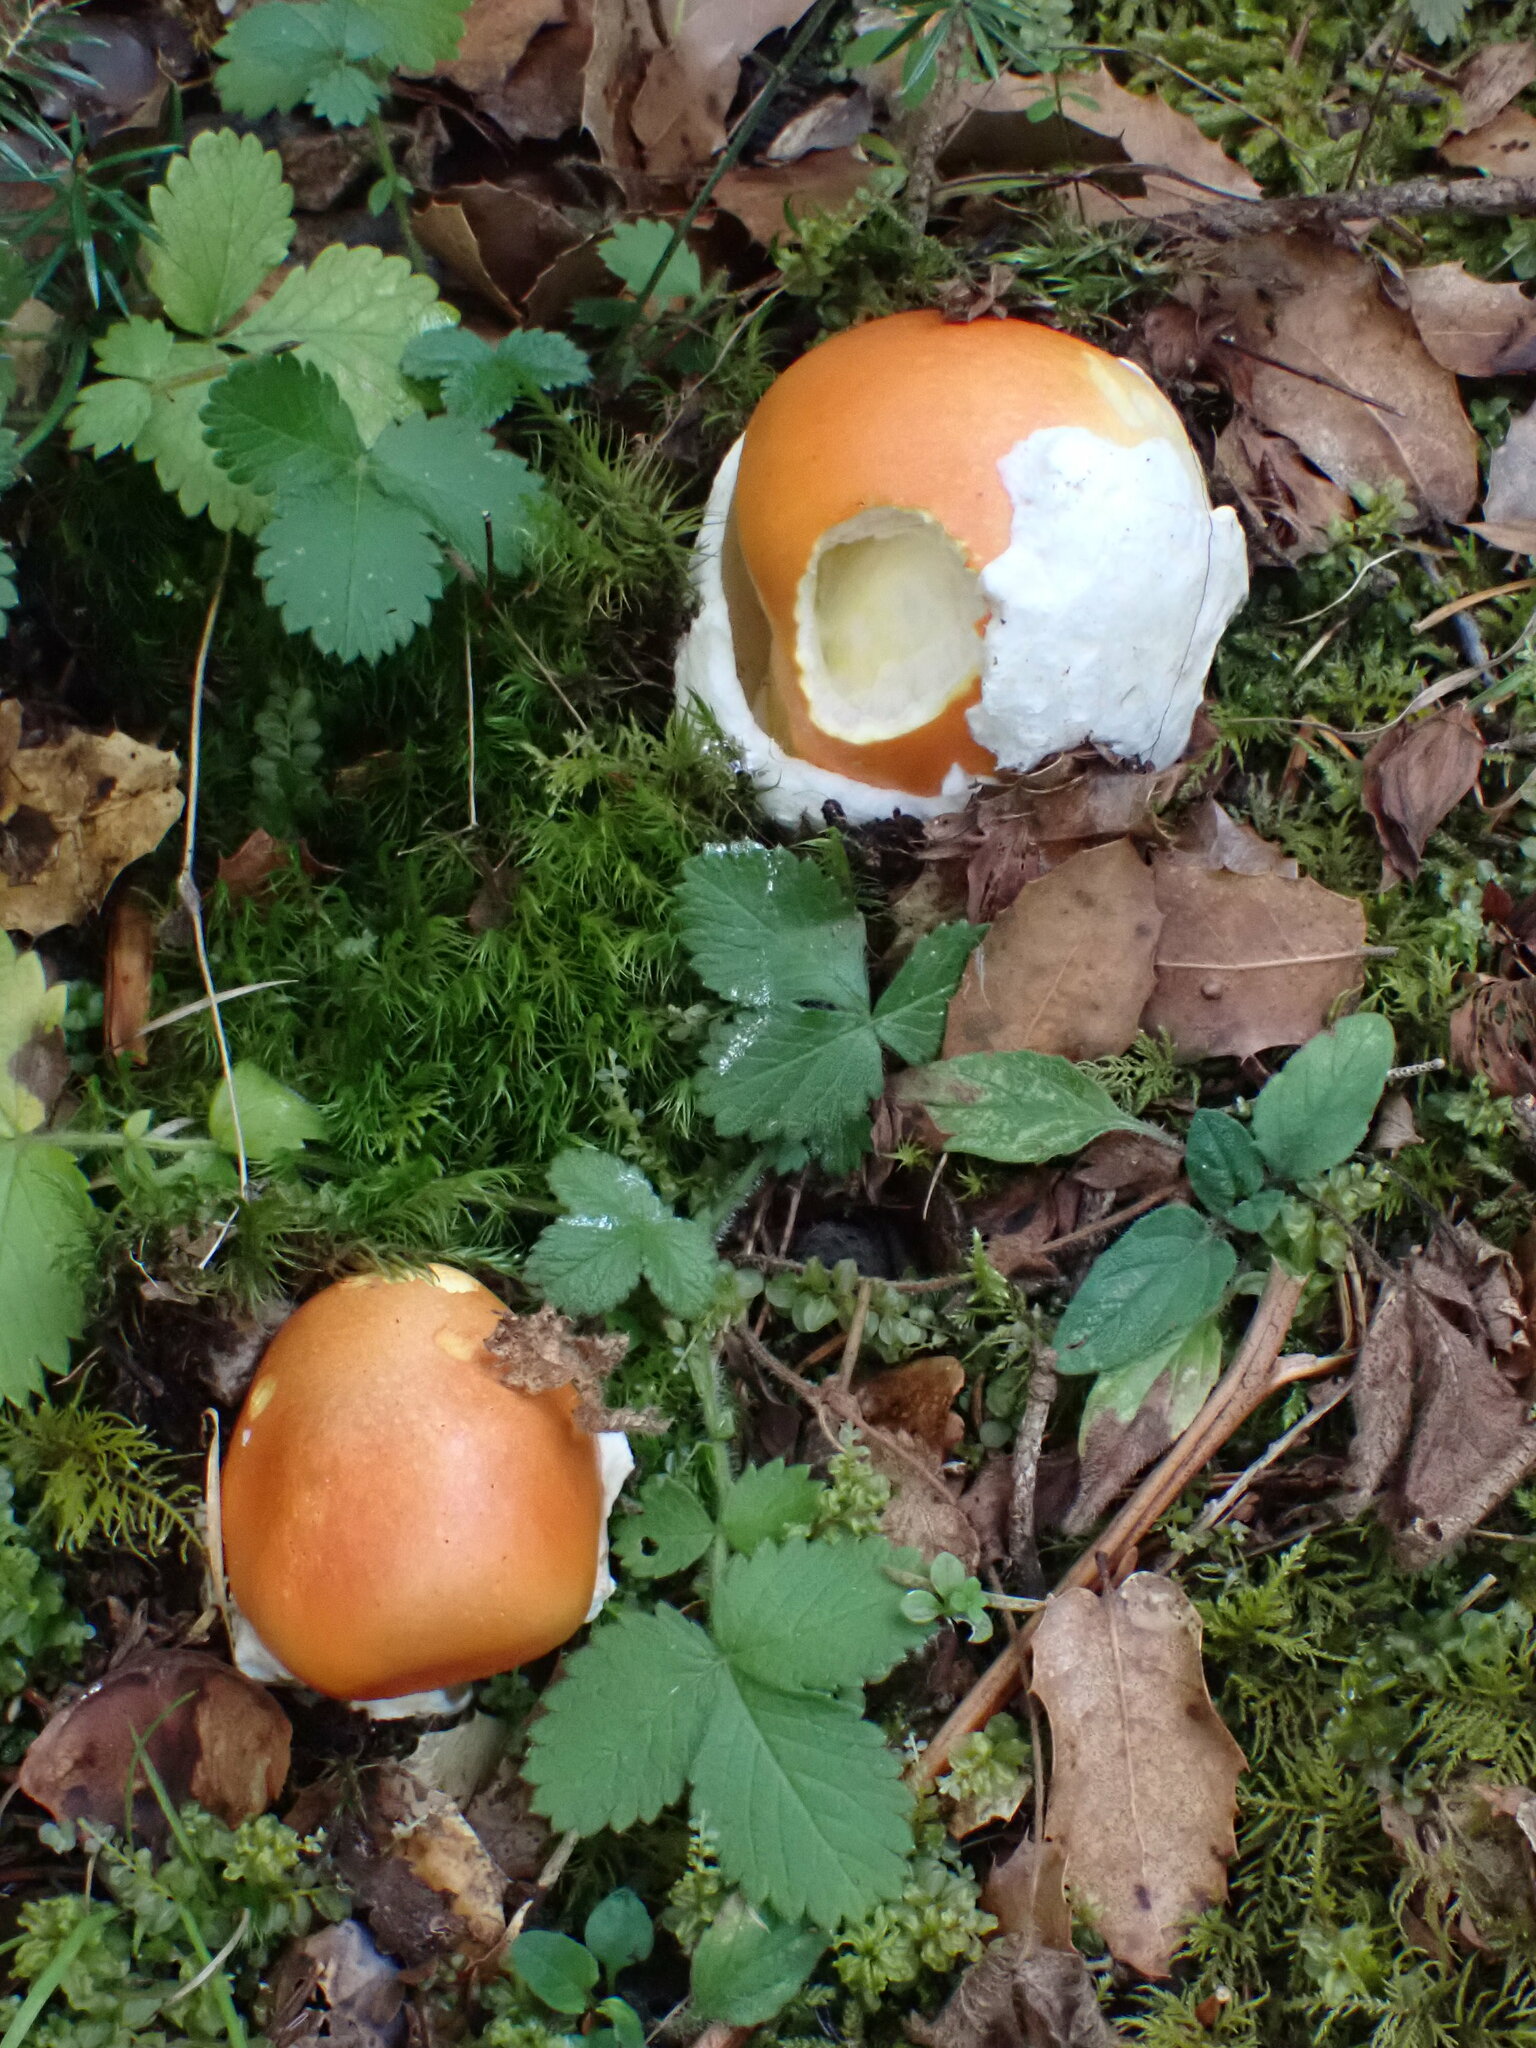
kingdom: Fungi
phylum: Basidiomycota
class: Agaricomycetes
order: Agaricales
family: Amanitaceae
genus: Amanita
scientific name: Amanita caesarea
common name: Caesar's amanita
